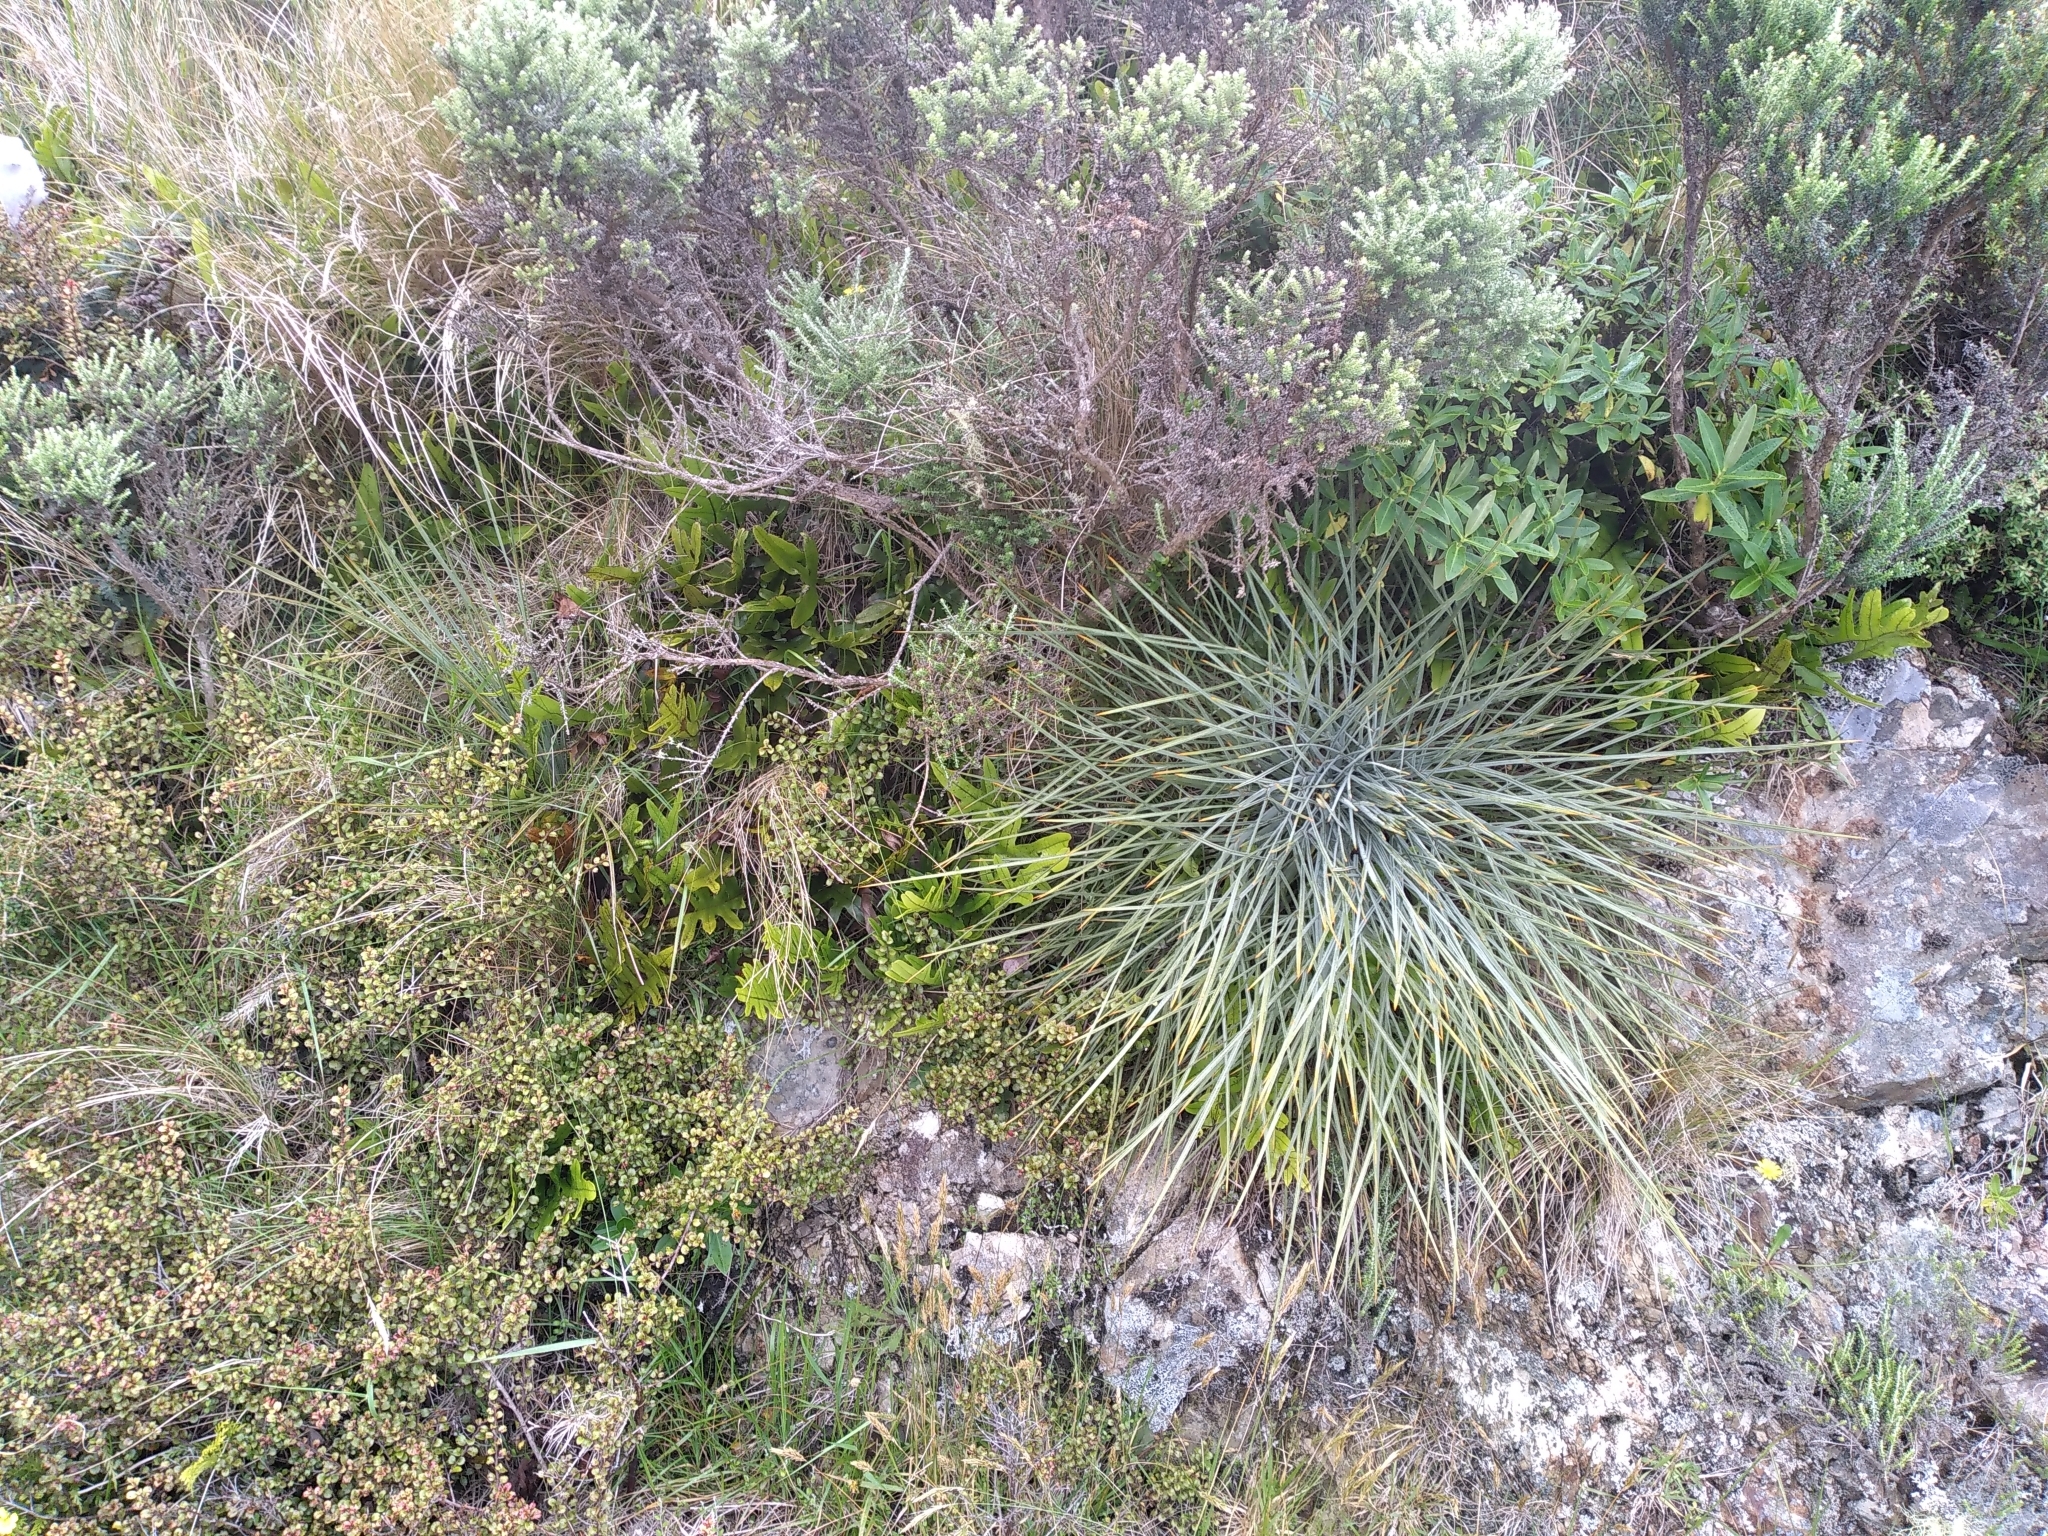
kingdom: Plantae
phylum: Tracheophyta
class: Magnoliopsida
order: Apiales
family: Apiaceae
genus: Aciphylla
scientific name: Aciphylla squarrosa
